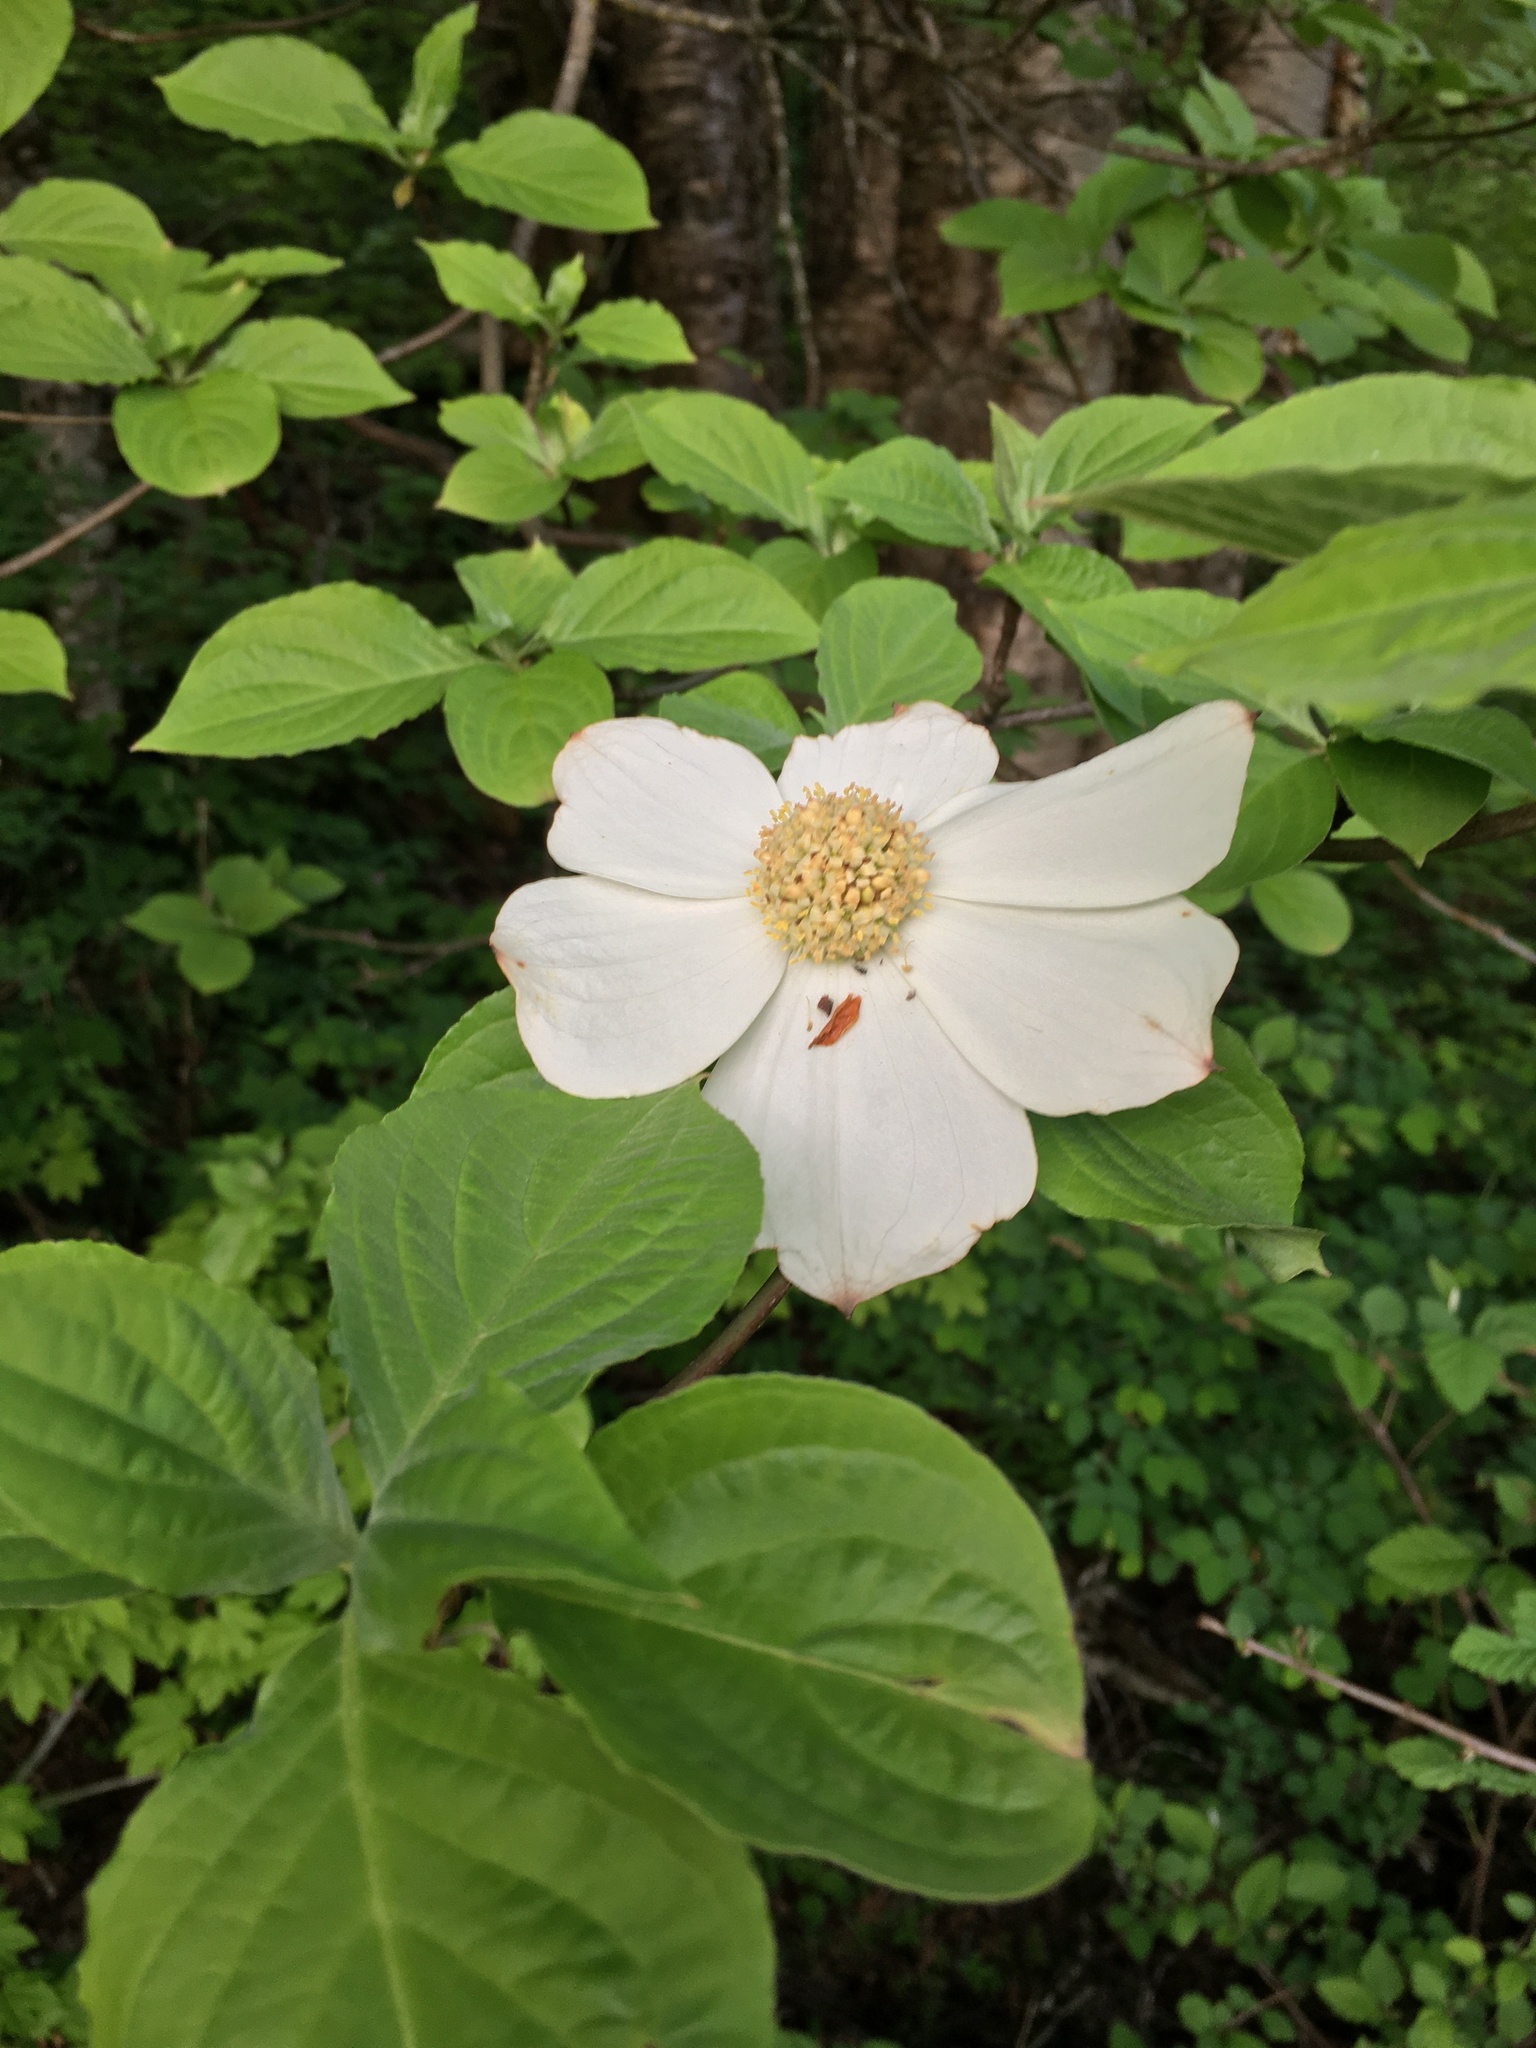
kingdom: Plantae
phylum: Tracheophyta
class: Magnoliopsida
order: Cornales
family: Cornaceae
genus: Cornus
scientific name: Cornus nuttallii
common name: Pacific dogwood
